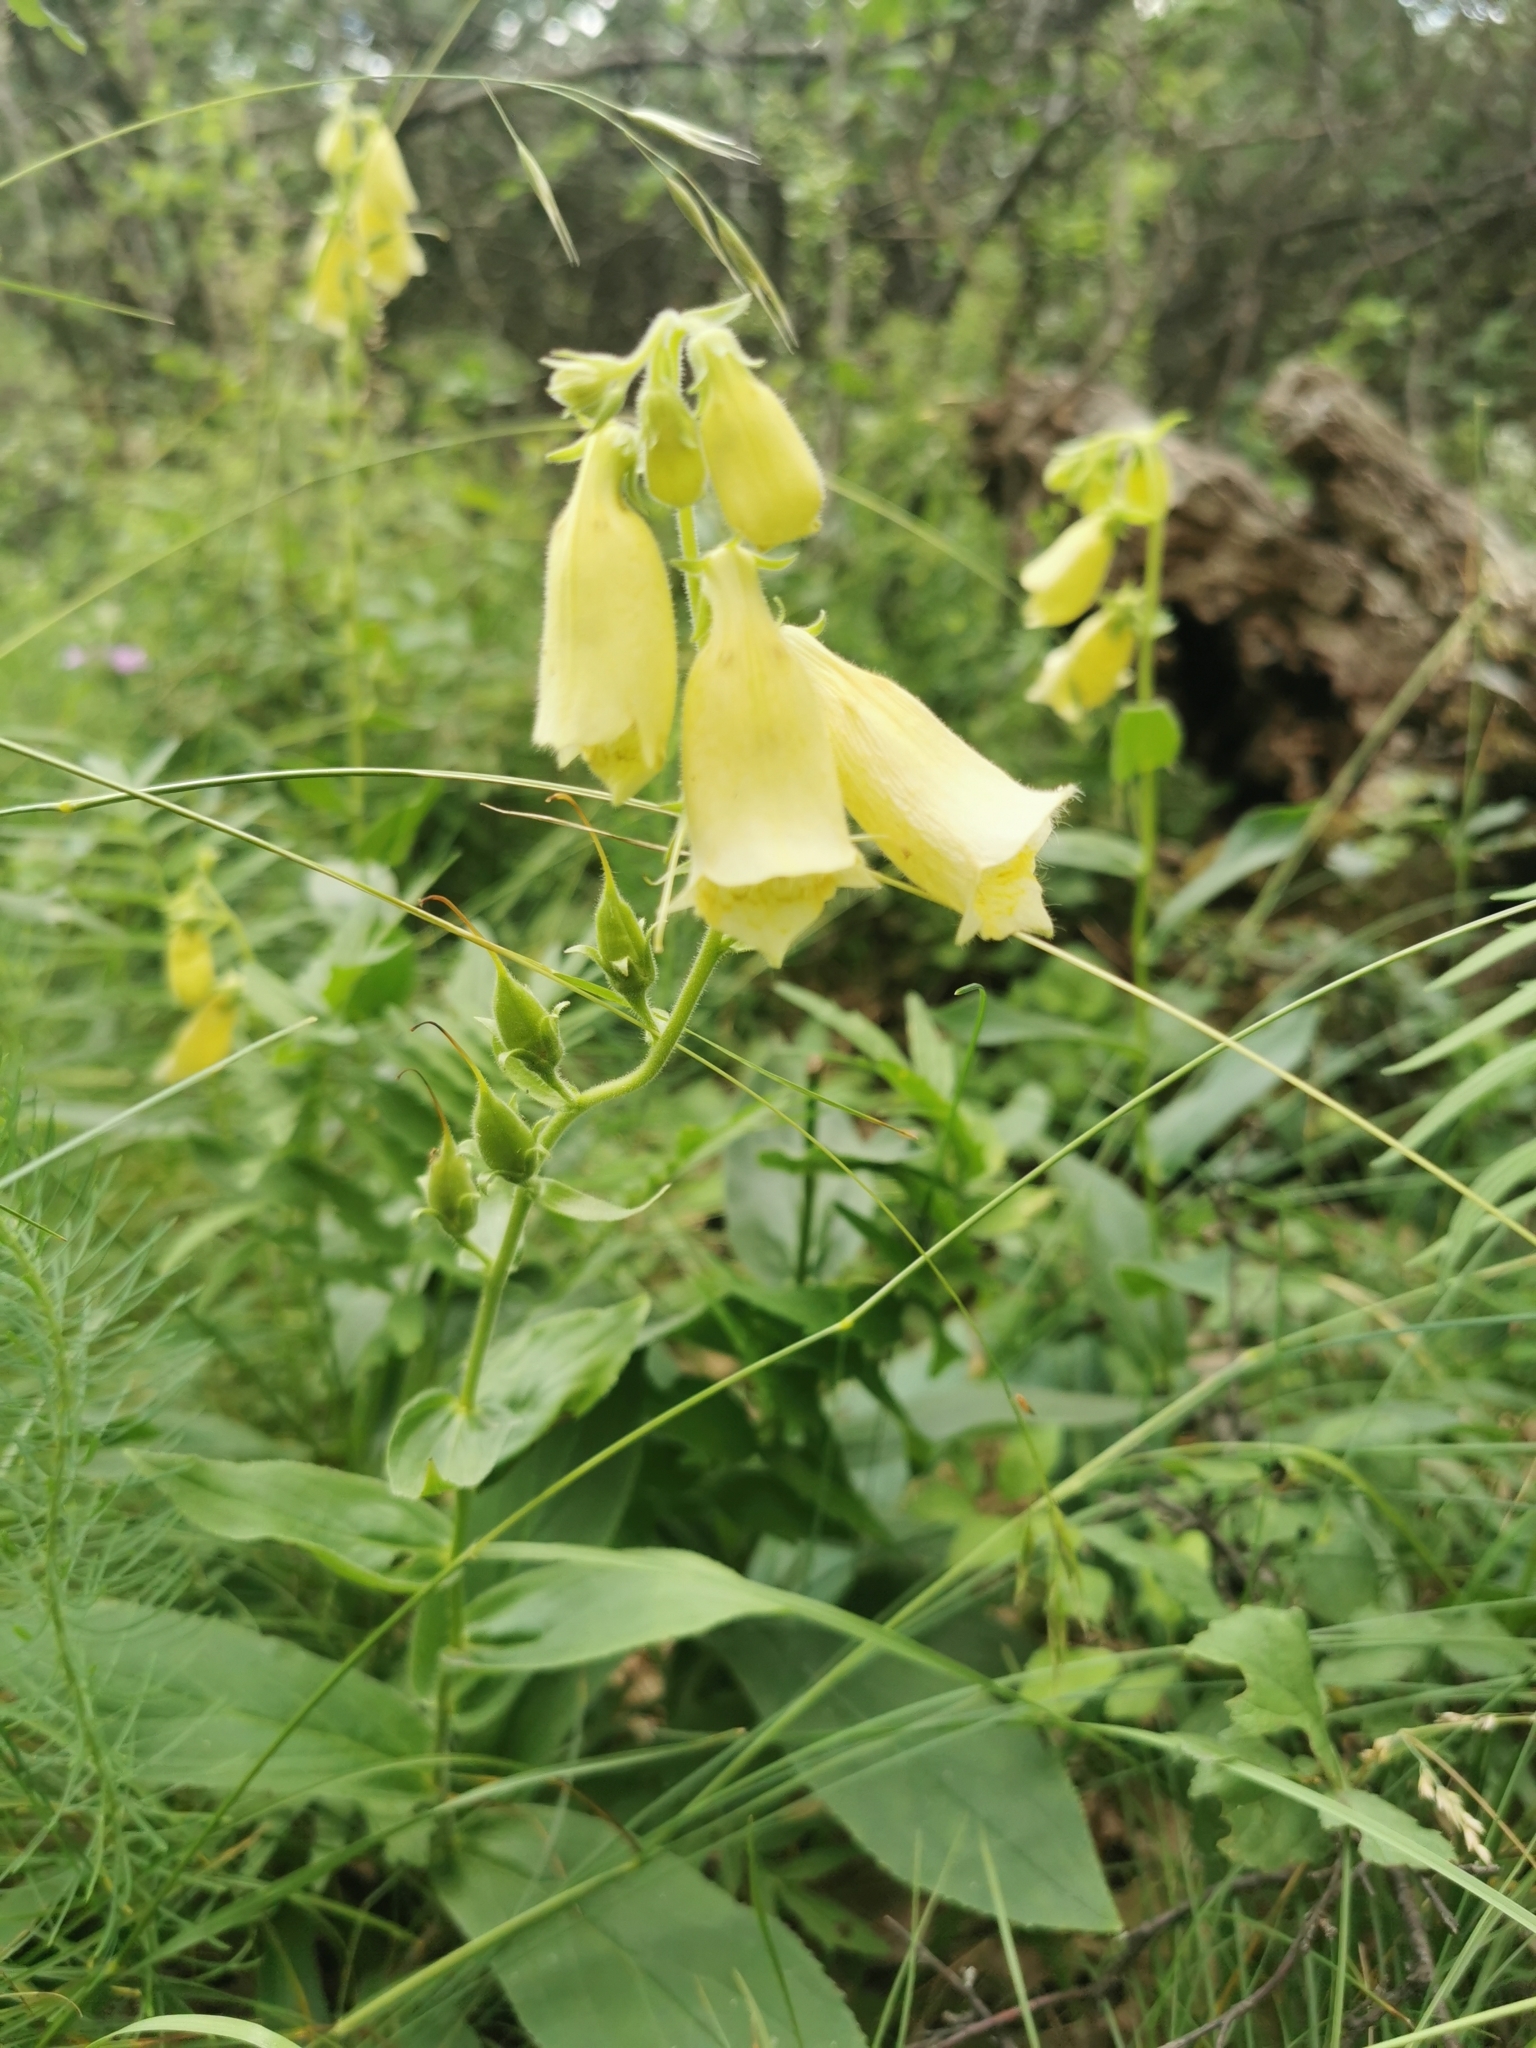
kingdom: Plantae
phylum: Tracheophyta
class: Magnoliopsida
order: Lamiales
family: Plantaginaceae
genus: Digitalis
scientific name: Digitalis grandiflora
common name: Yellow foxglove
